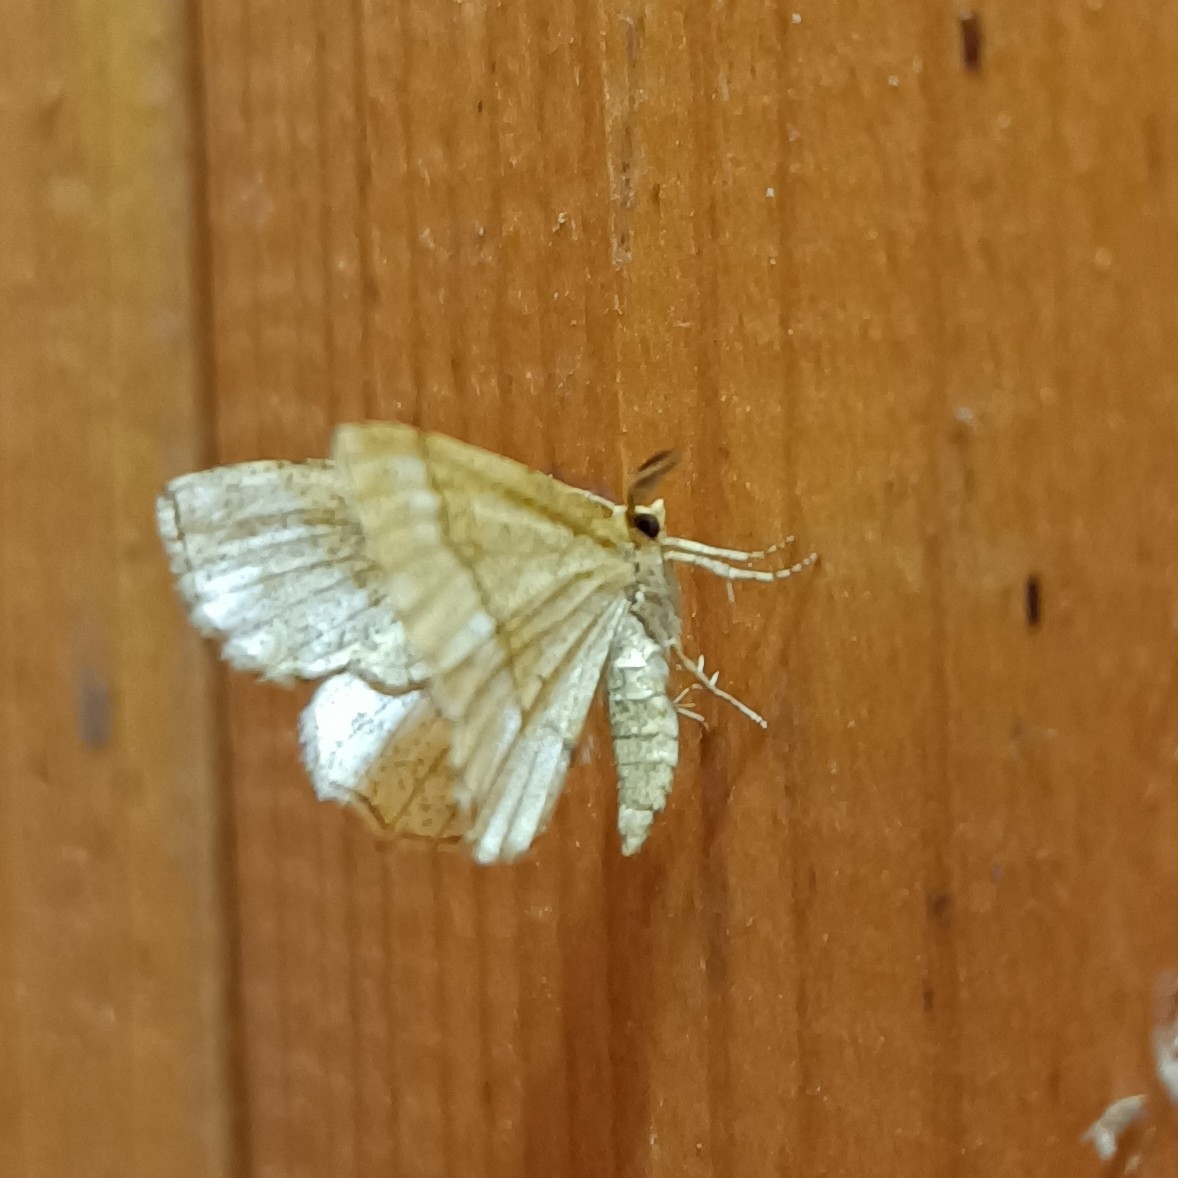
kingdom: Animalia
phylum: Arthropoda
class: Insecta
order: Lepidoptera
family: Geometridae
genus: Cepphis
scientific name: Cepphis advenaria
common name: Little thorn
